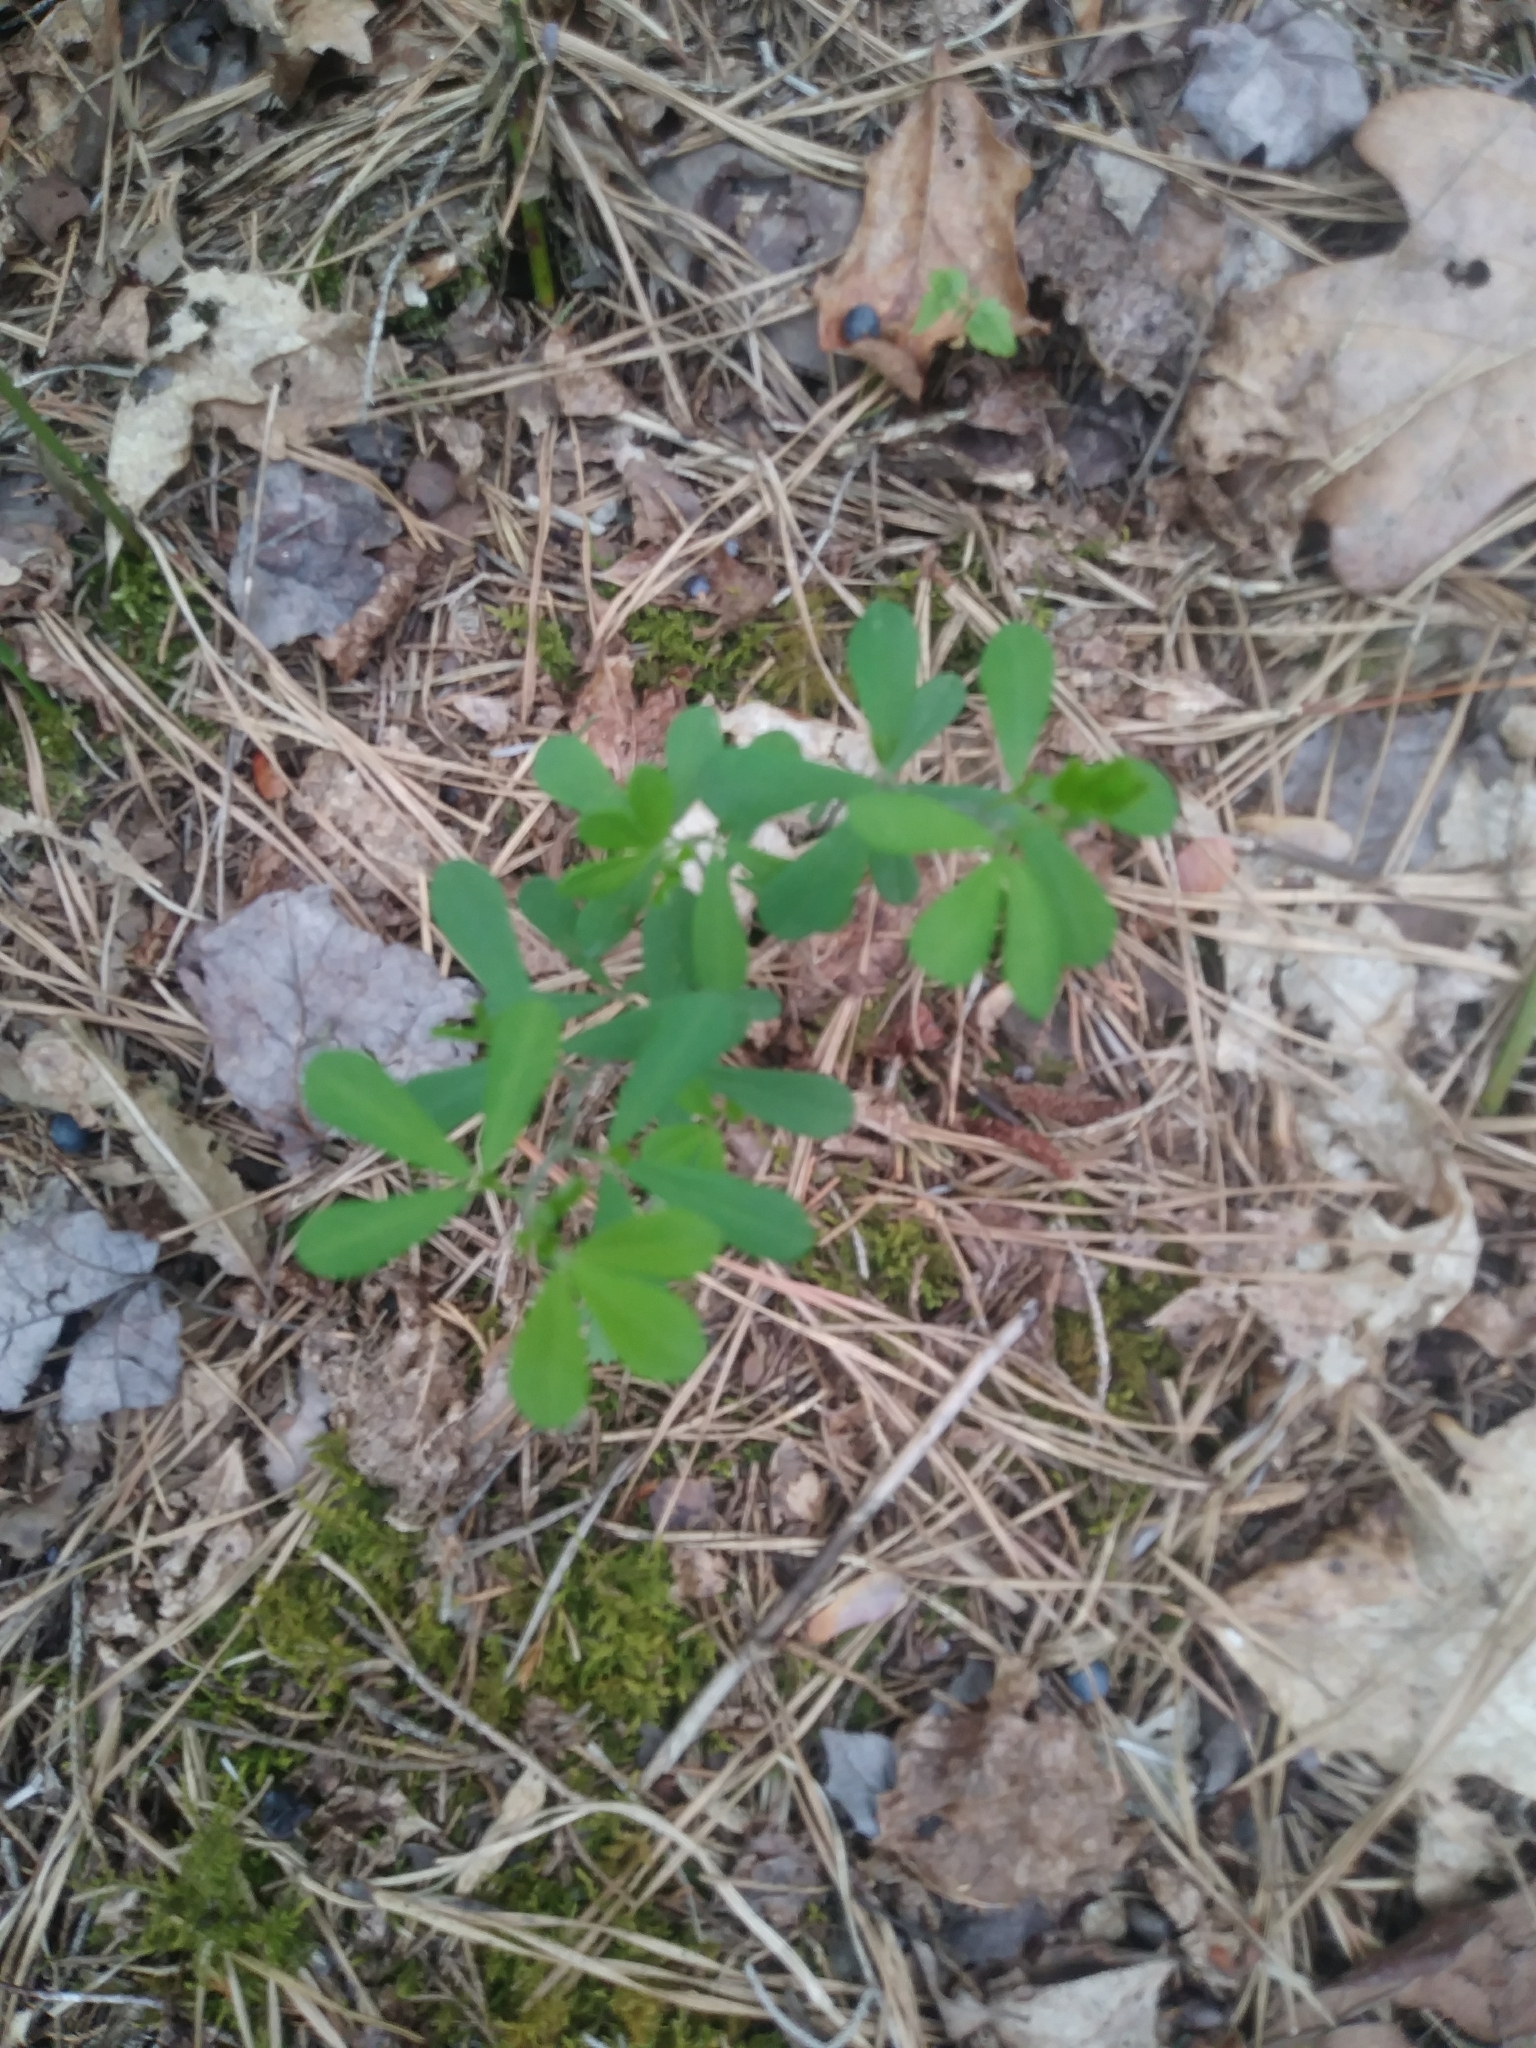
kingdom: Plantae
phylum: Tracheophyta
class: Magnoliopsida
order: Fabales
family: Fabaceae
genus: Baptisia
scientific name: Baptisia tinctoria
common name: Wild indigo
